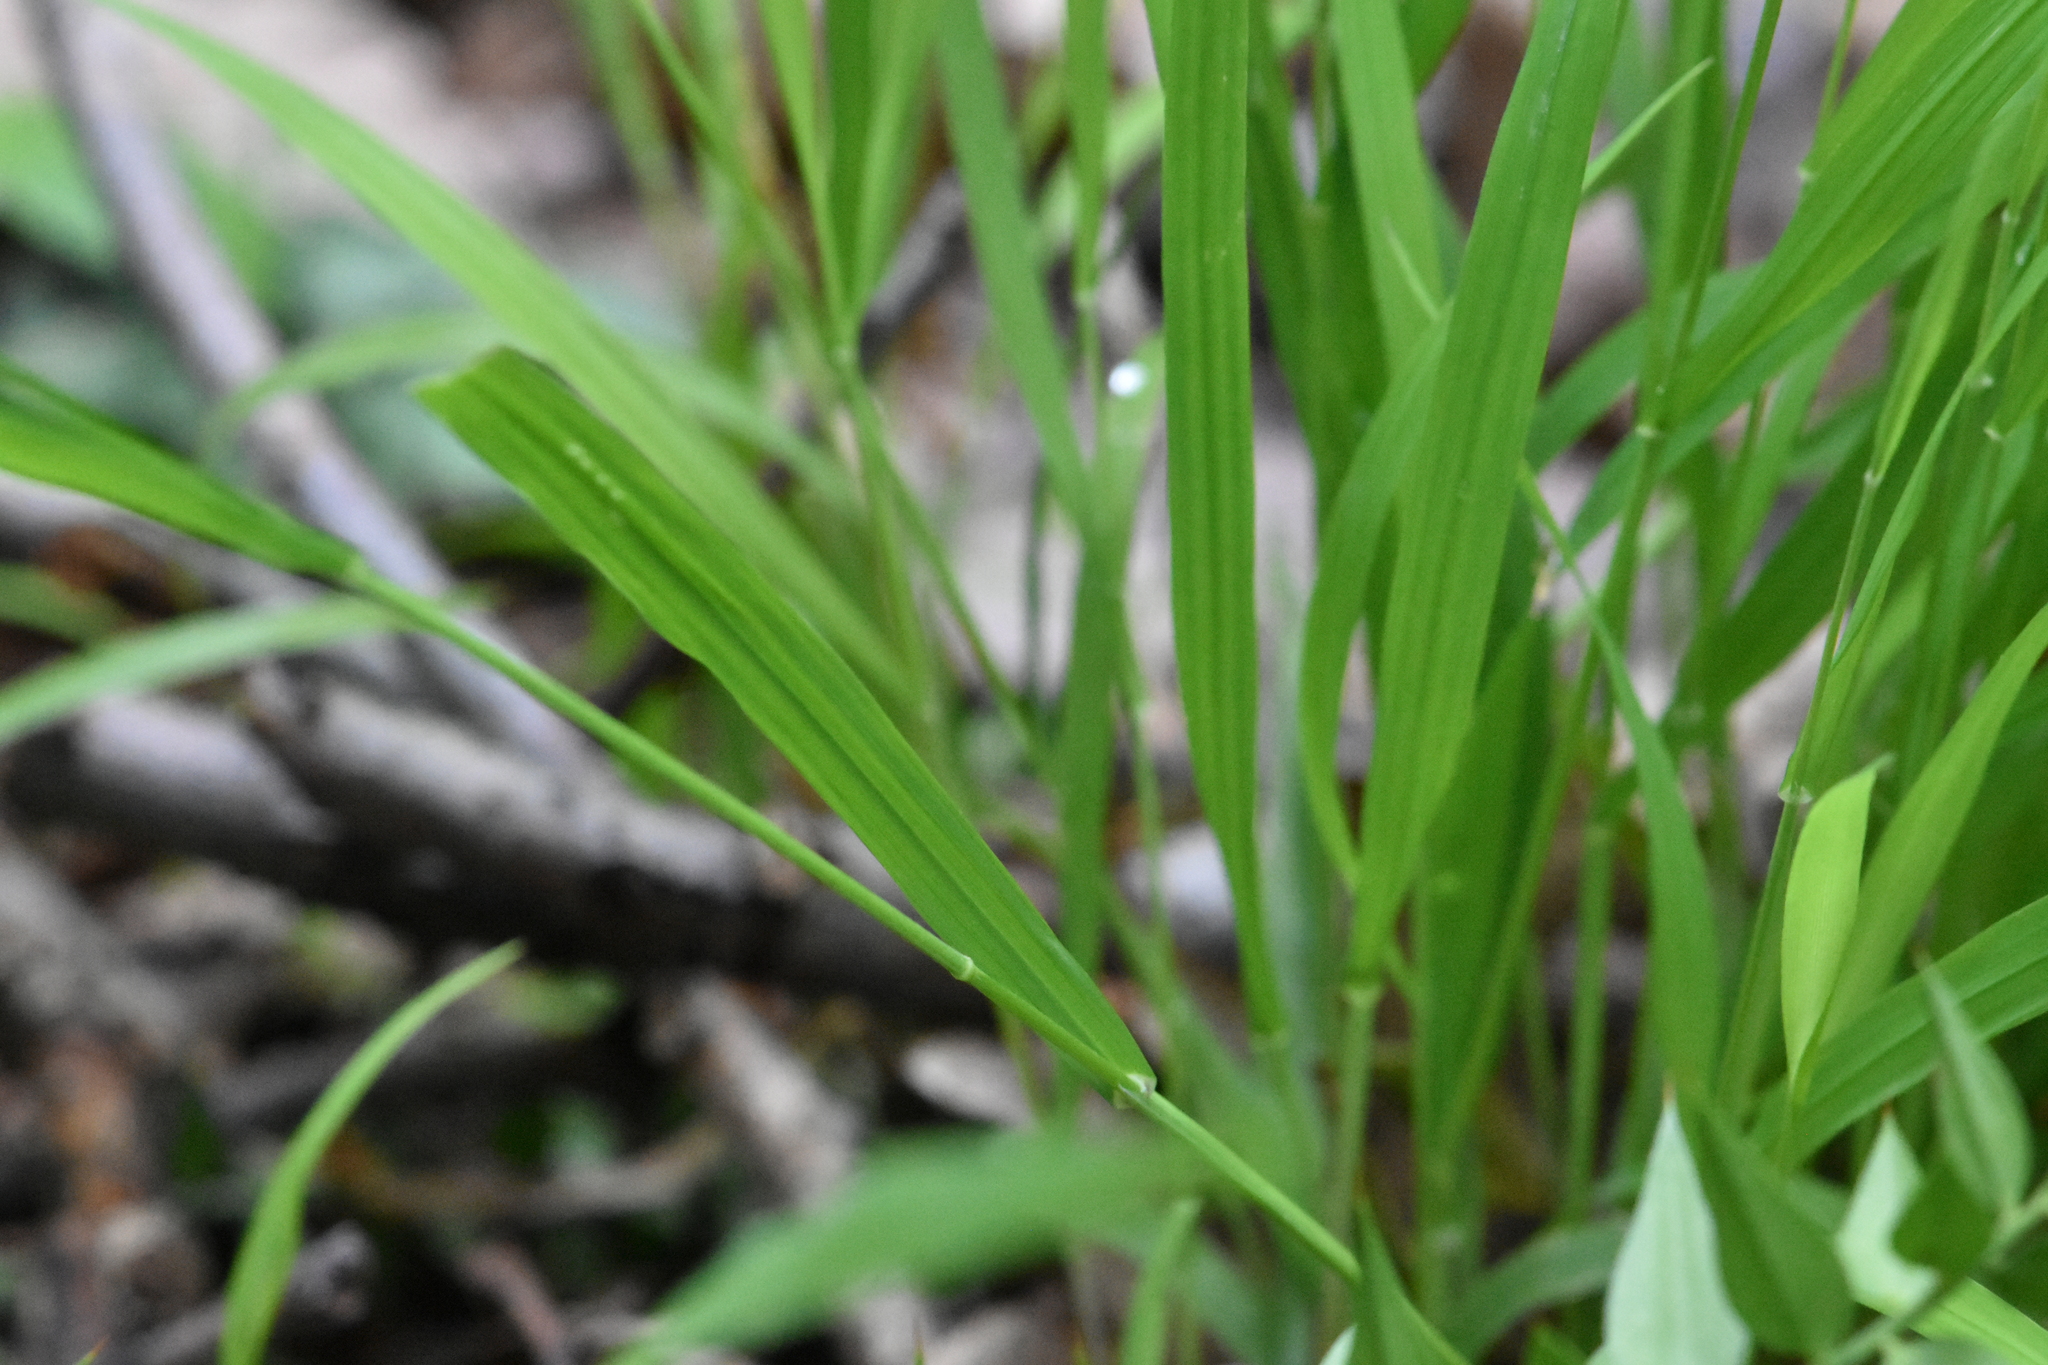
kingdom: Plantae
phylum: Tracheophyta
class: Liliopsida
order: Poales
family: Poaceae
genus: Melica
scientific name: Melica uniflora
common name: Wood melick
